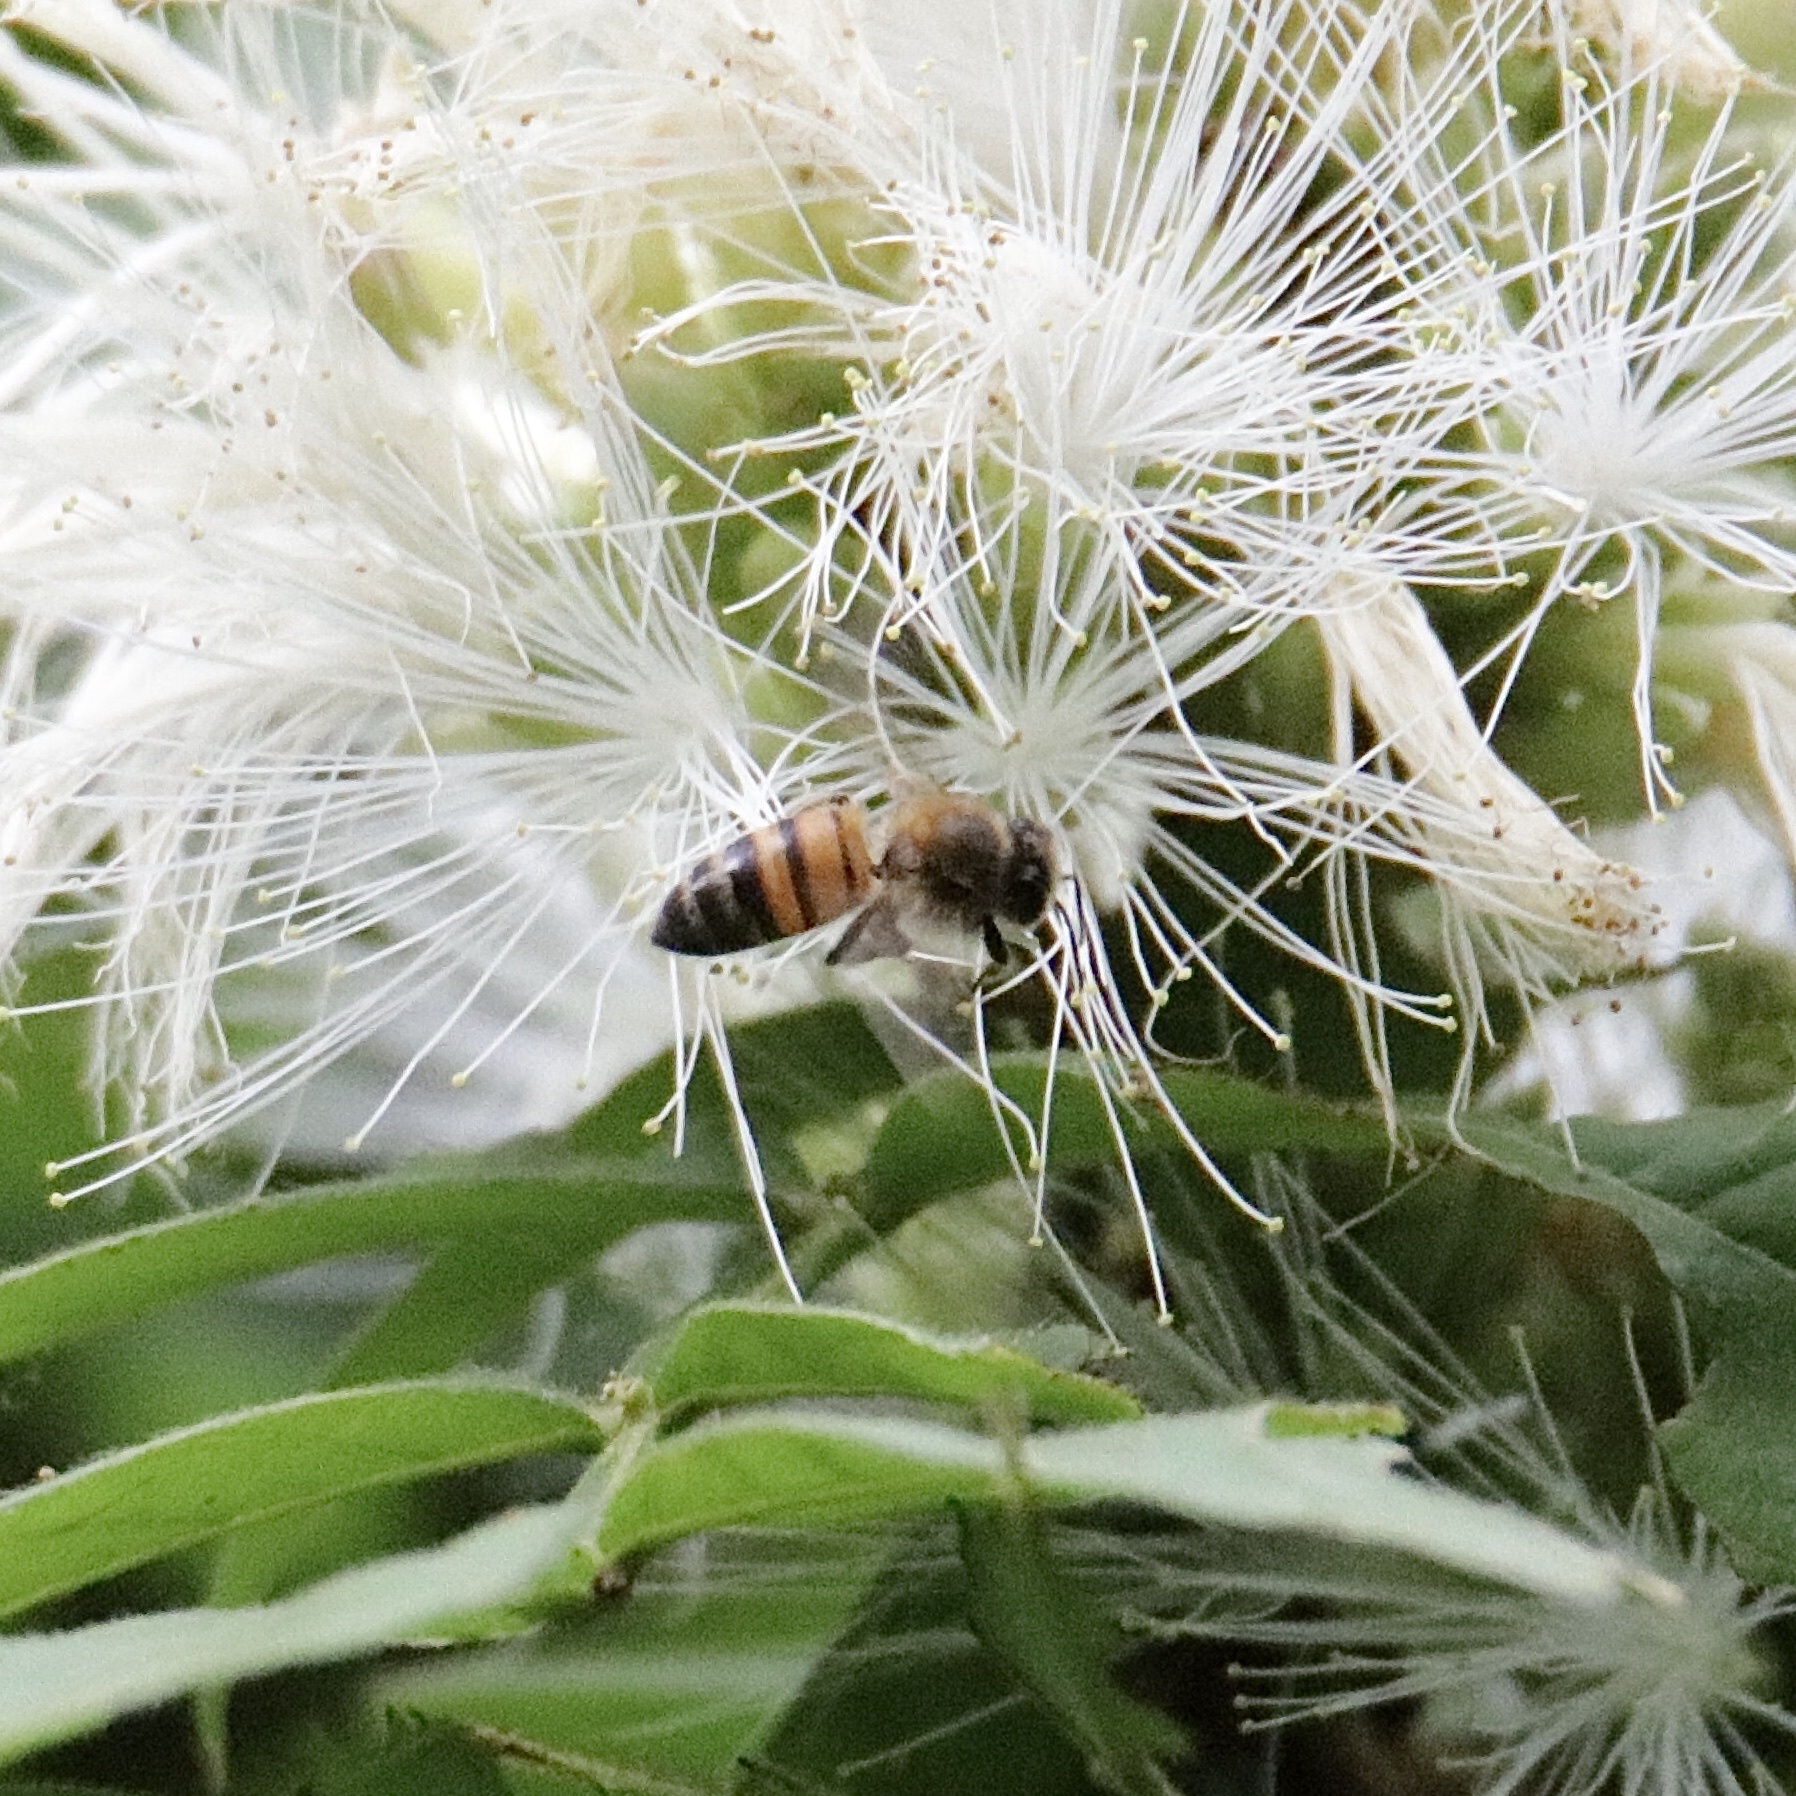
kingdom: Animalia
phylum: Arthropoda
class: Insecta
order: Hymenoptera
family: Apidae
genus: Apis
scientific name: Apis mellifera
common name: Honey bee
